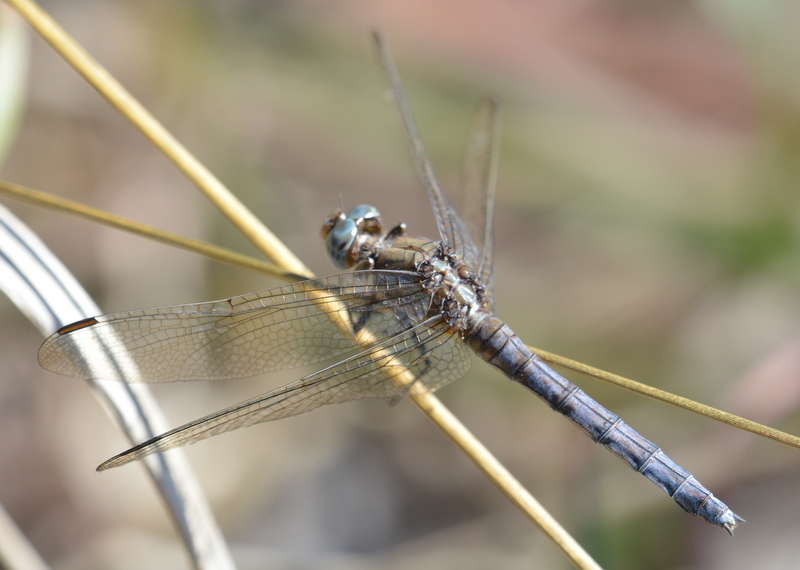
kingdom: Animalia
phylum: Arthropoda
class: Insecta
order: Odonata
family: Libellulidae
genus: Orthetrum
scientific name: Orthetrum chrysostigma
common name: Epaulet skimmer
